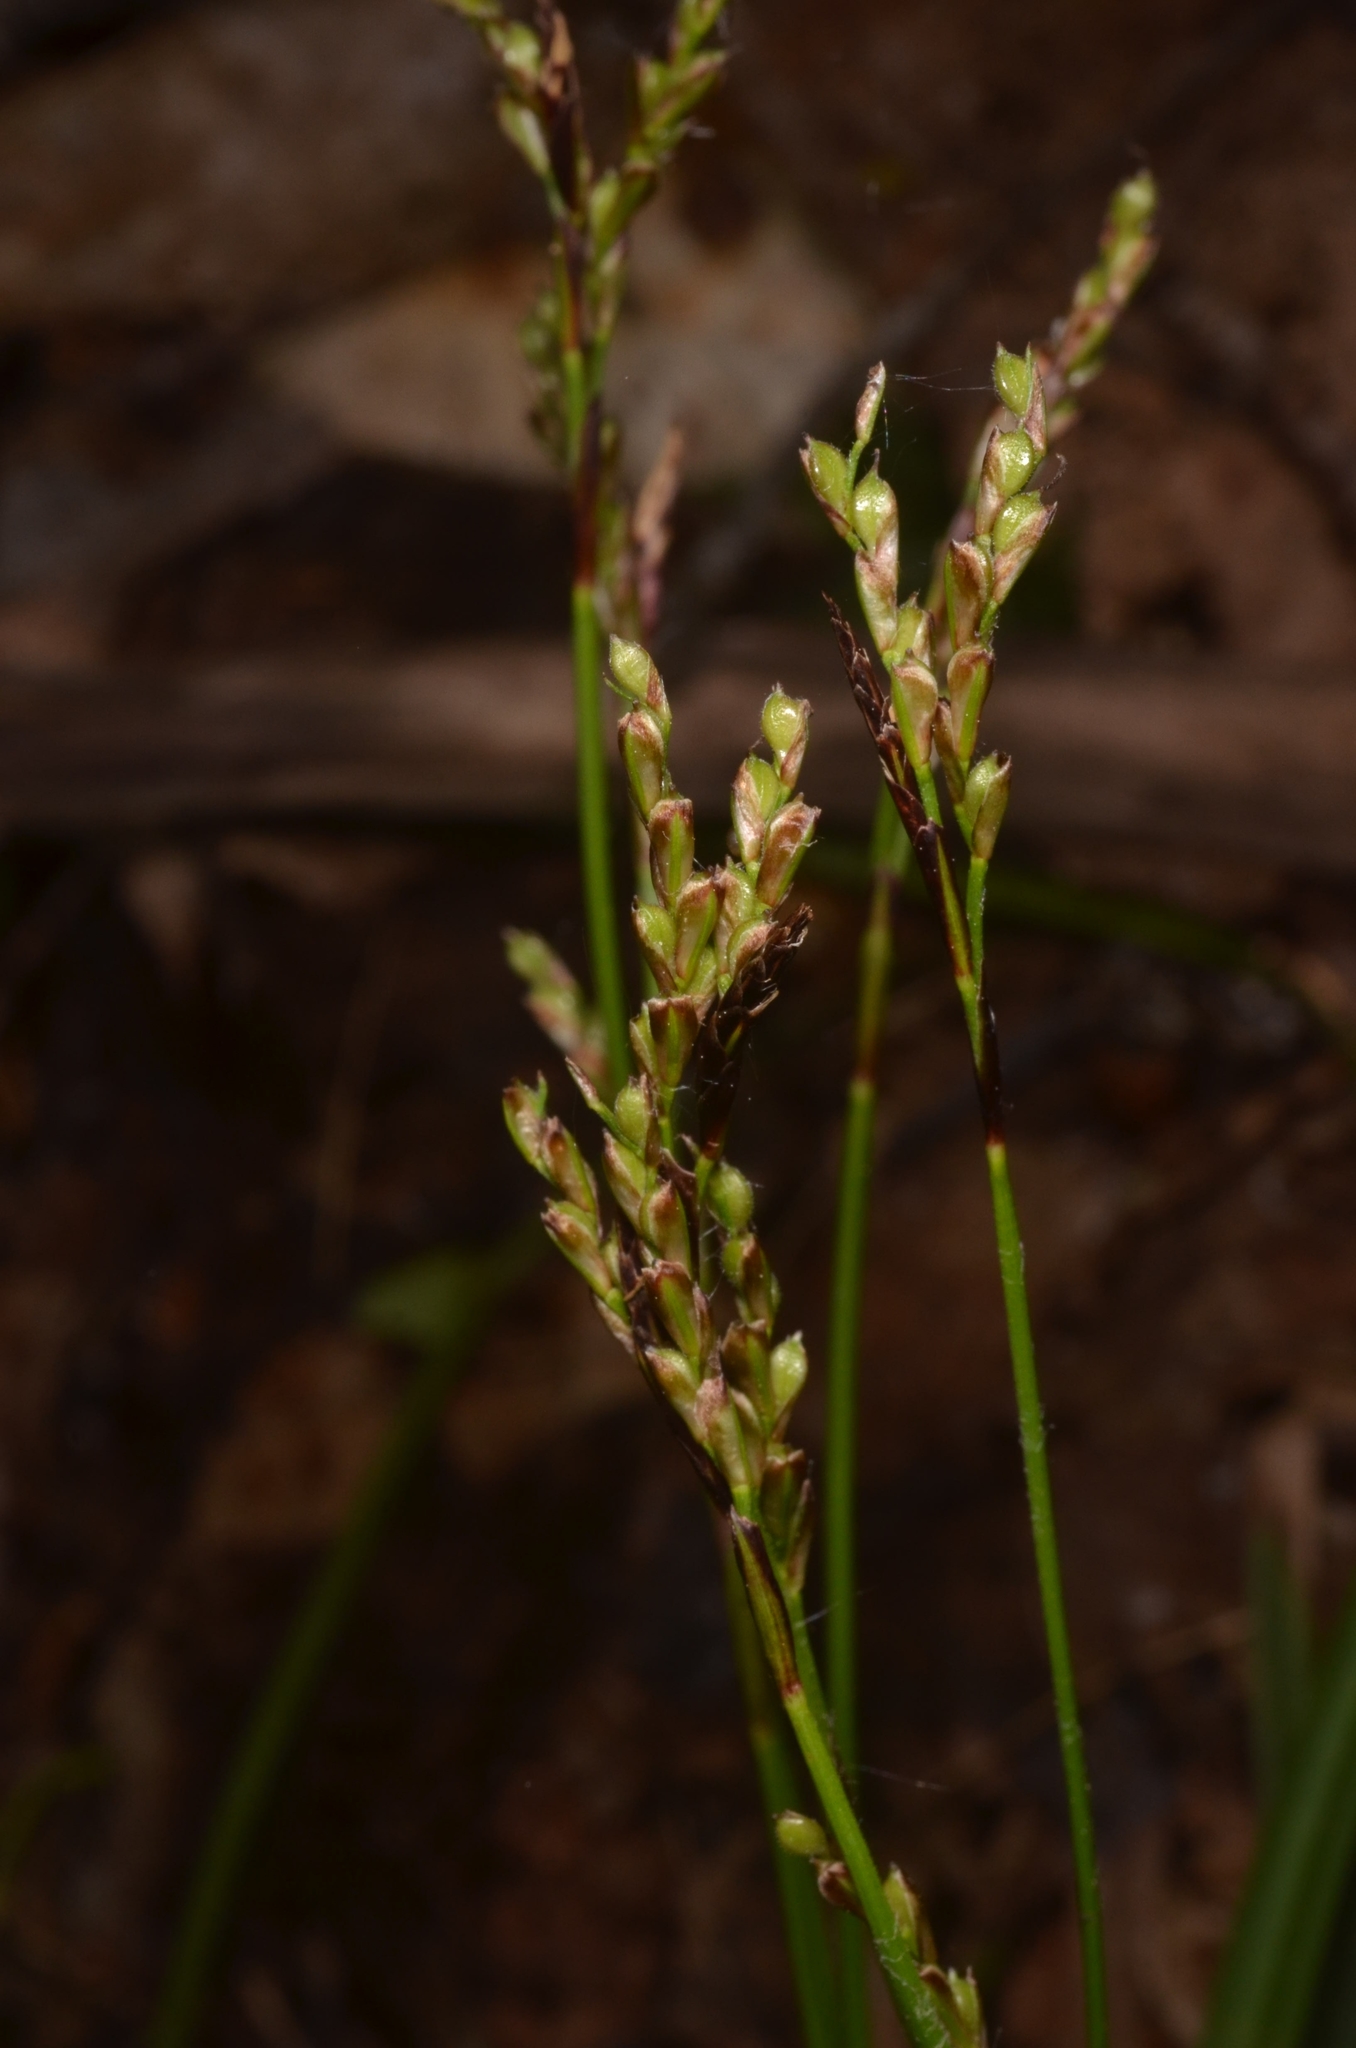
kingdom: Plantae
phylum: Tracheophyta
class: Liliopsida
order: Poales
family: Cyperaceae
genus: Carex
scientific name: Carex digitata
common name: Fingered sedge
